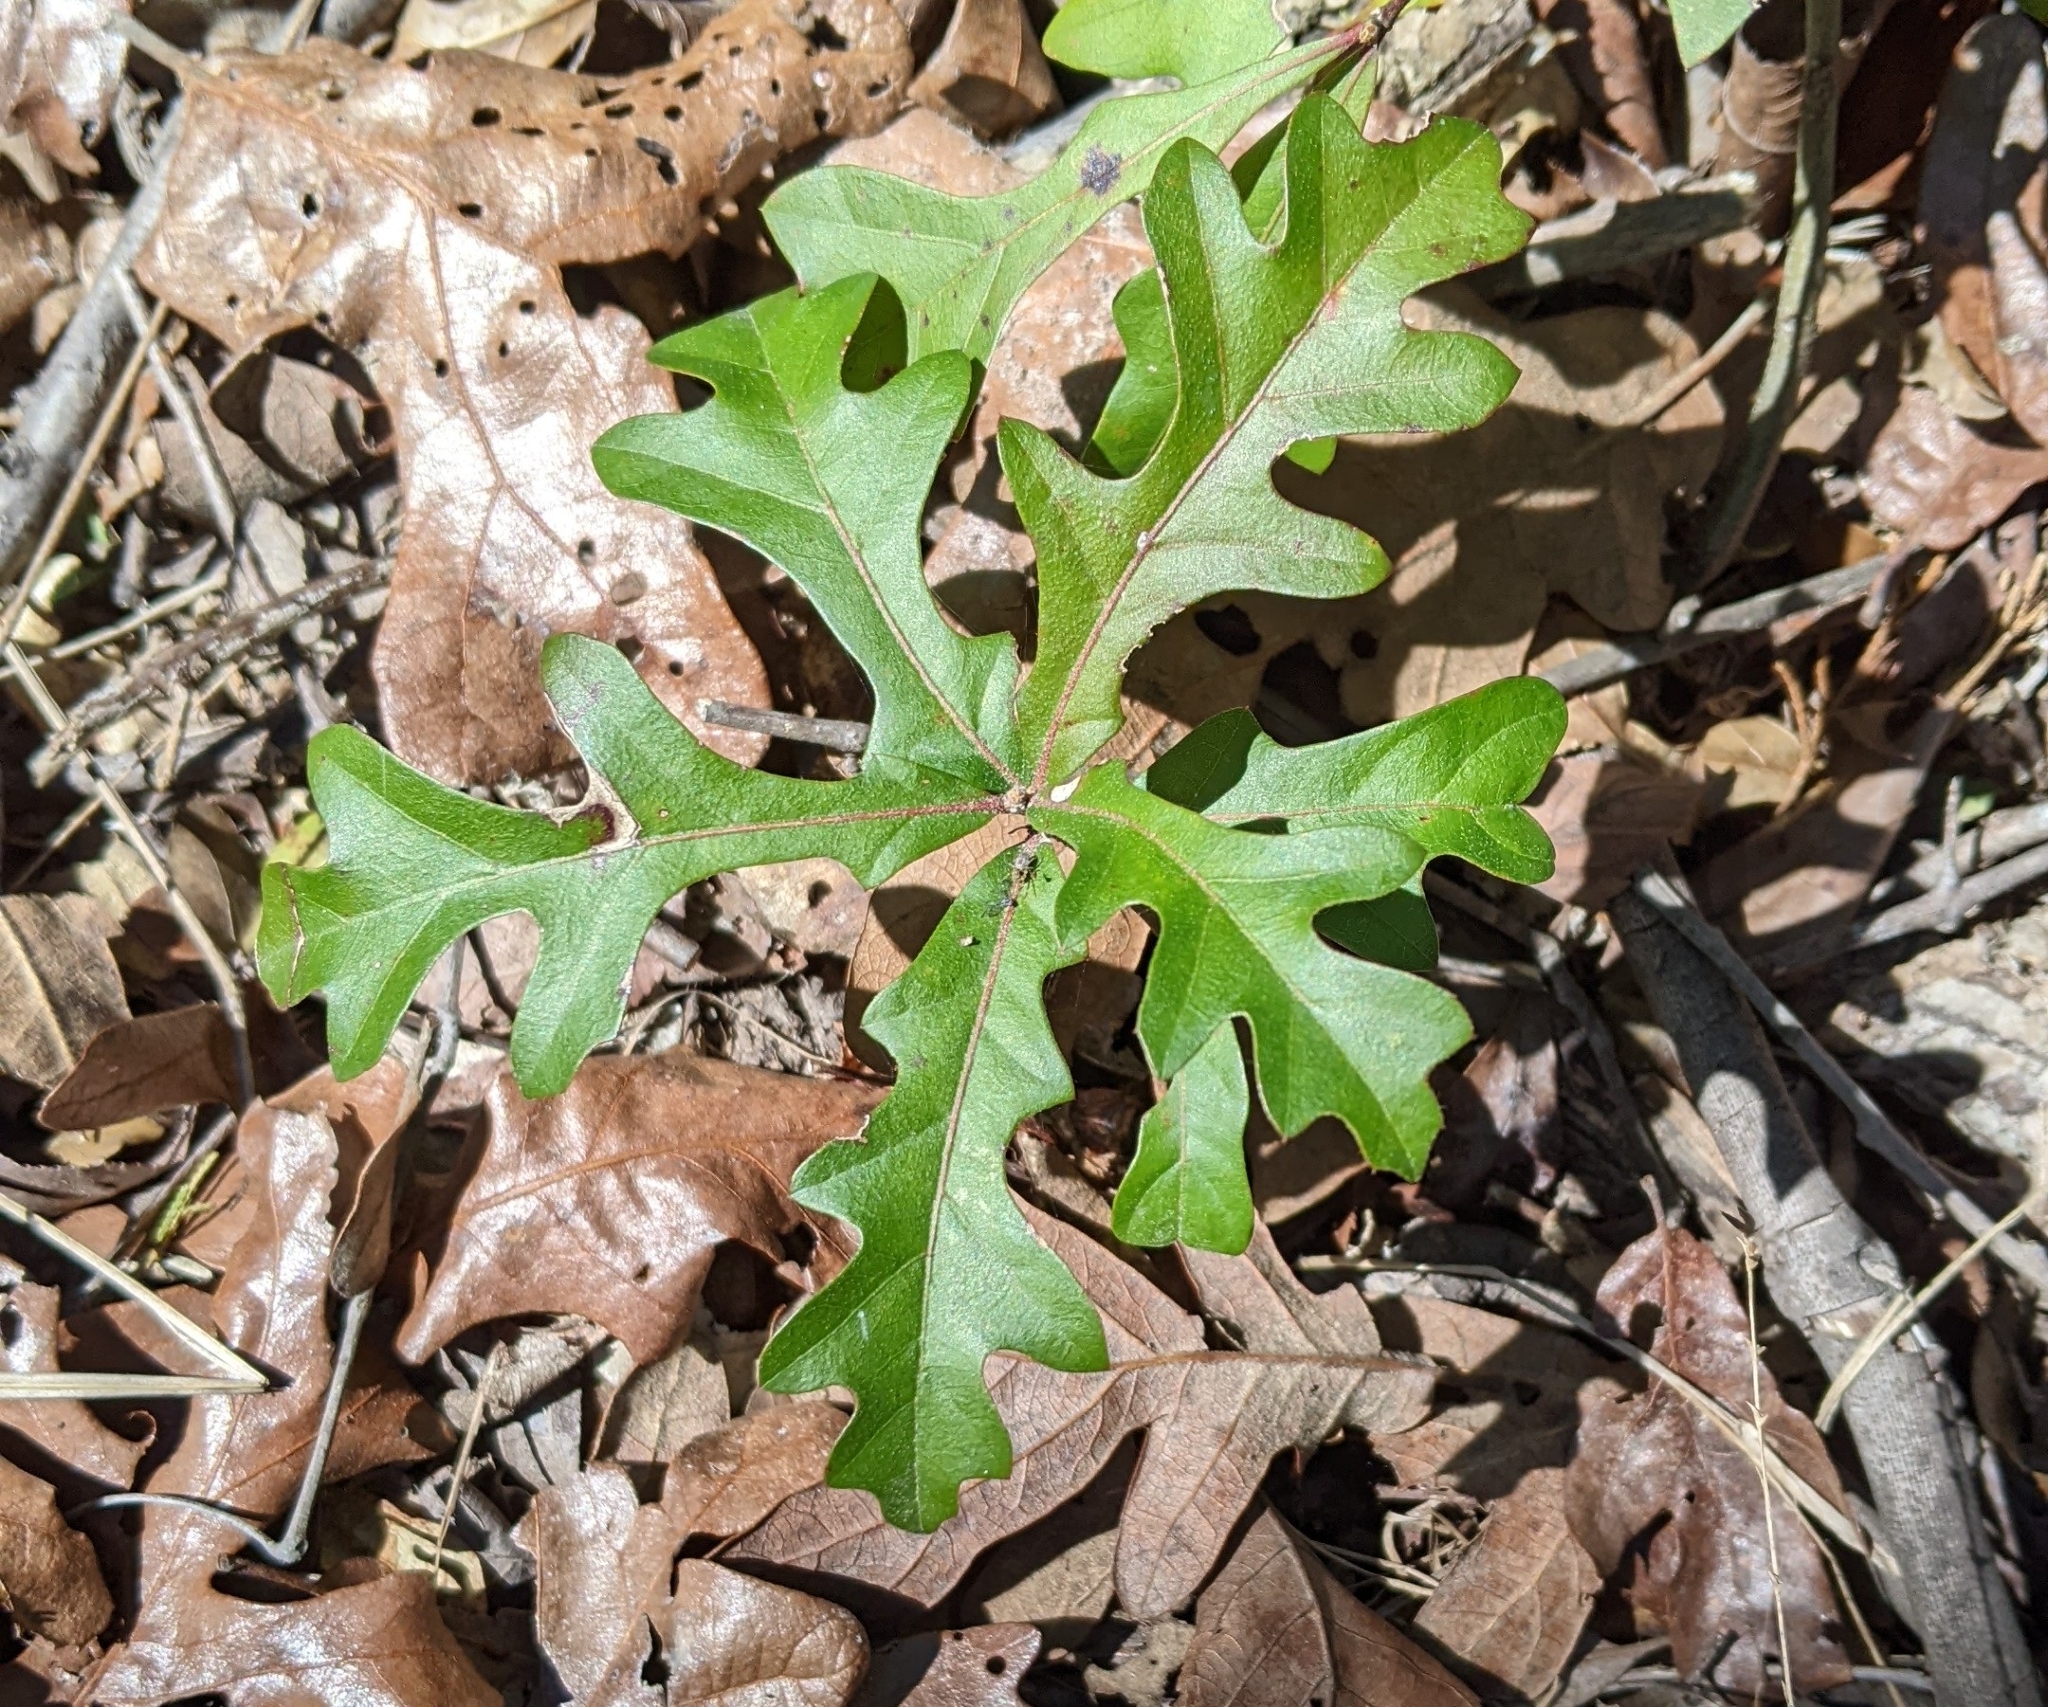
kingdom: Plantae
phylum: Tracheophyta
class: Magnoliopsida
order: Fagales
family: Fagaceae
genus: Quercus
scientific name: Quercus nigra
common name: Water oak
